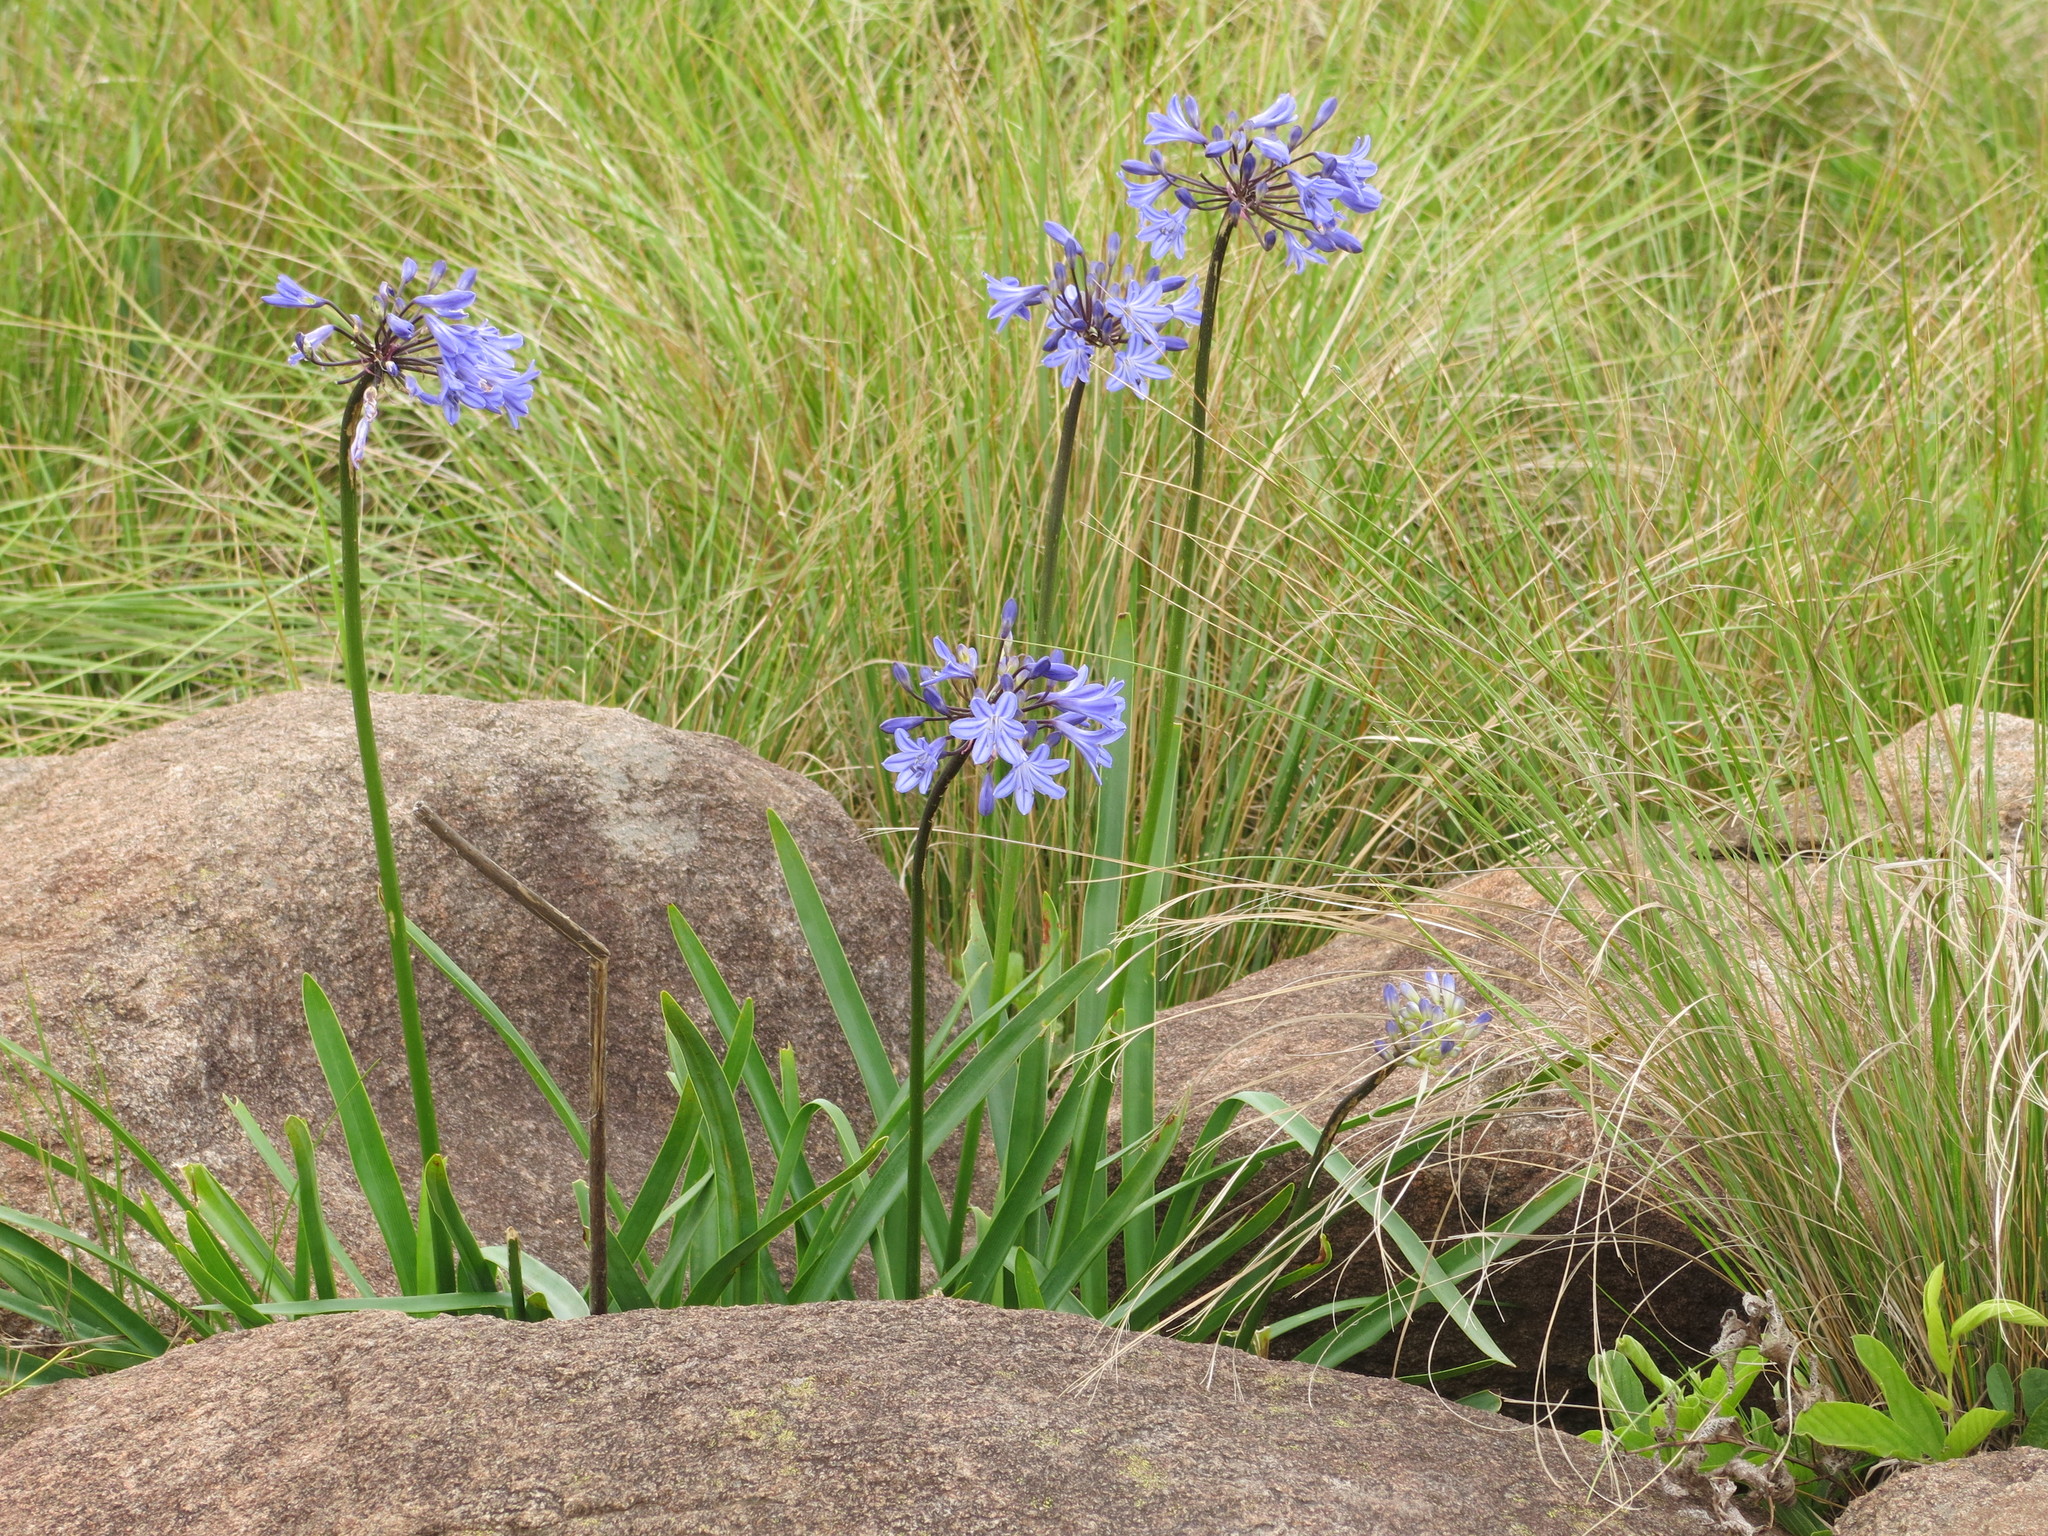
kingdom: Plantae
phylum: Tracheophyta
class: Liliopsida
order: Asparagales
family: Amaryllidaceae
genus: Agapanthus
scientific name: Agapanthus campanulatus
